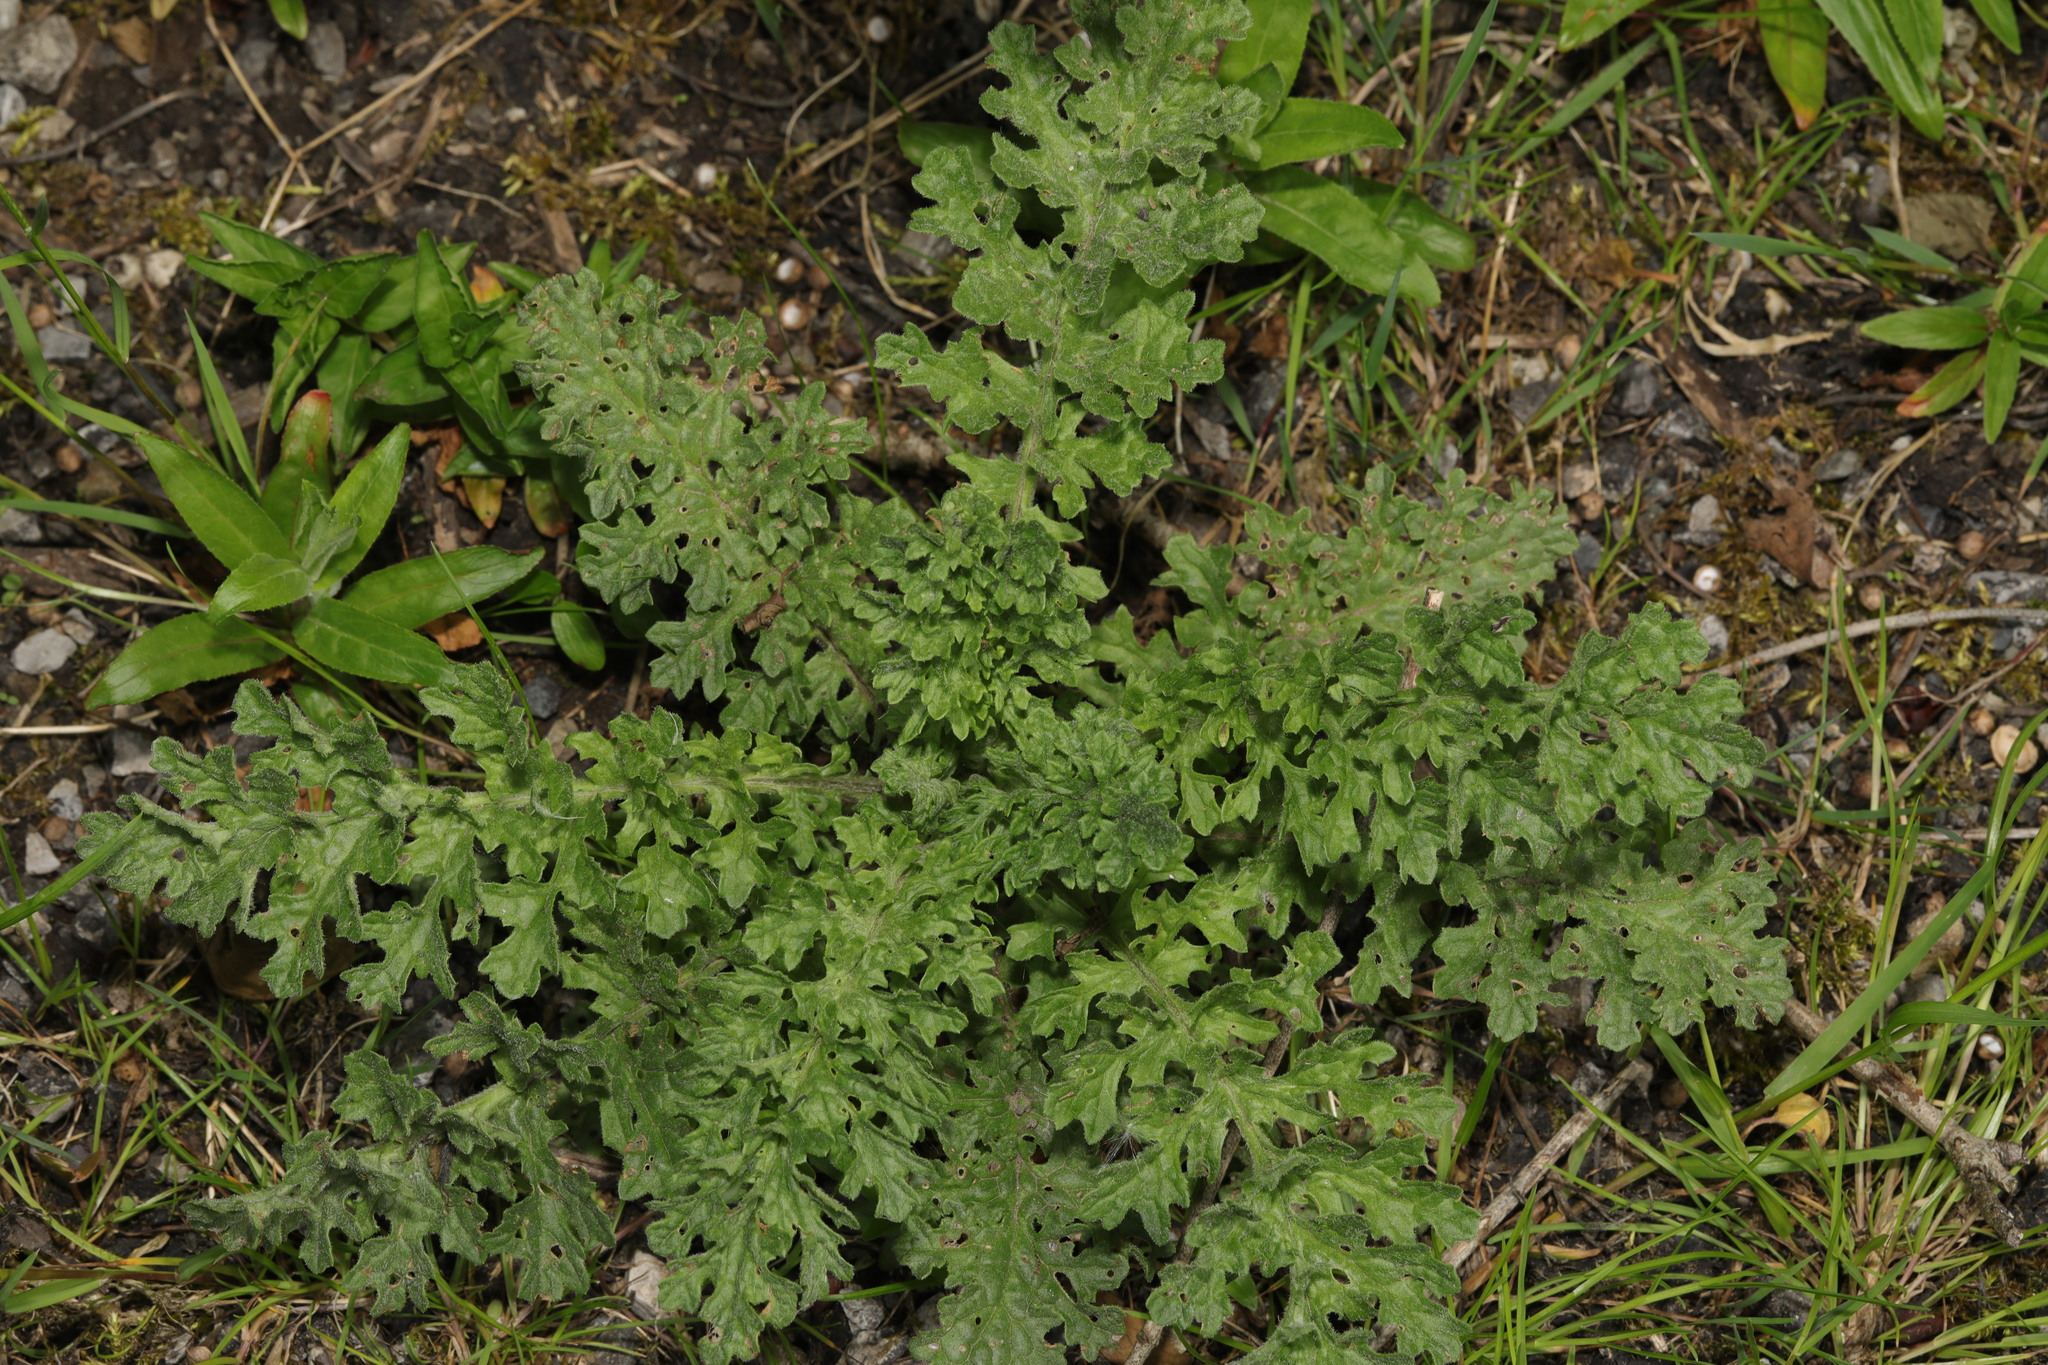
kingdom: Plantae
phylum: Tracheophyta
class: Magnoliopsida
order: Asterales
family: Asteraceae
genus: Jacobaea
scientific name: Jacobaea vulgaris
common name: Stinking willie
